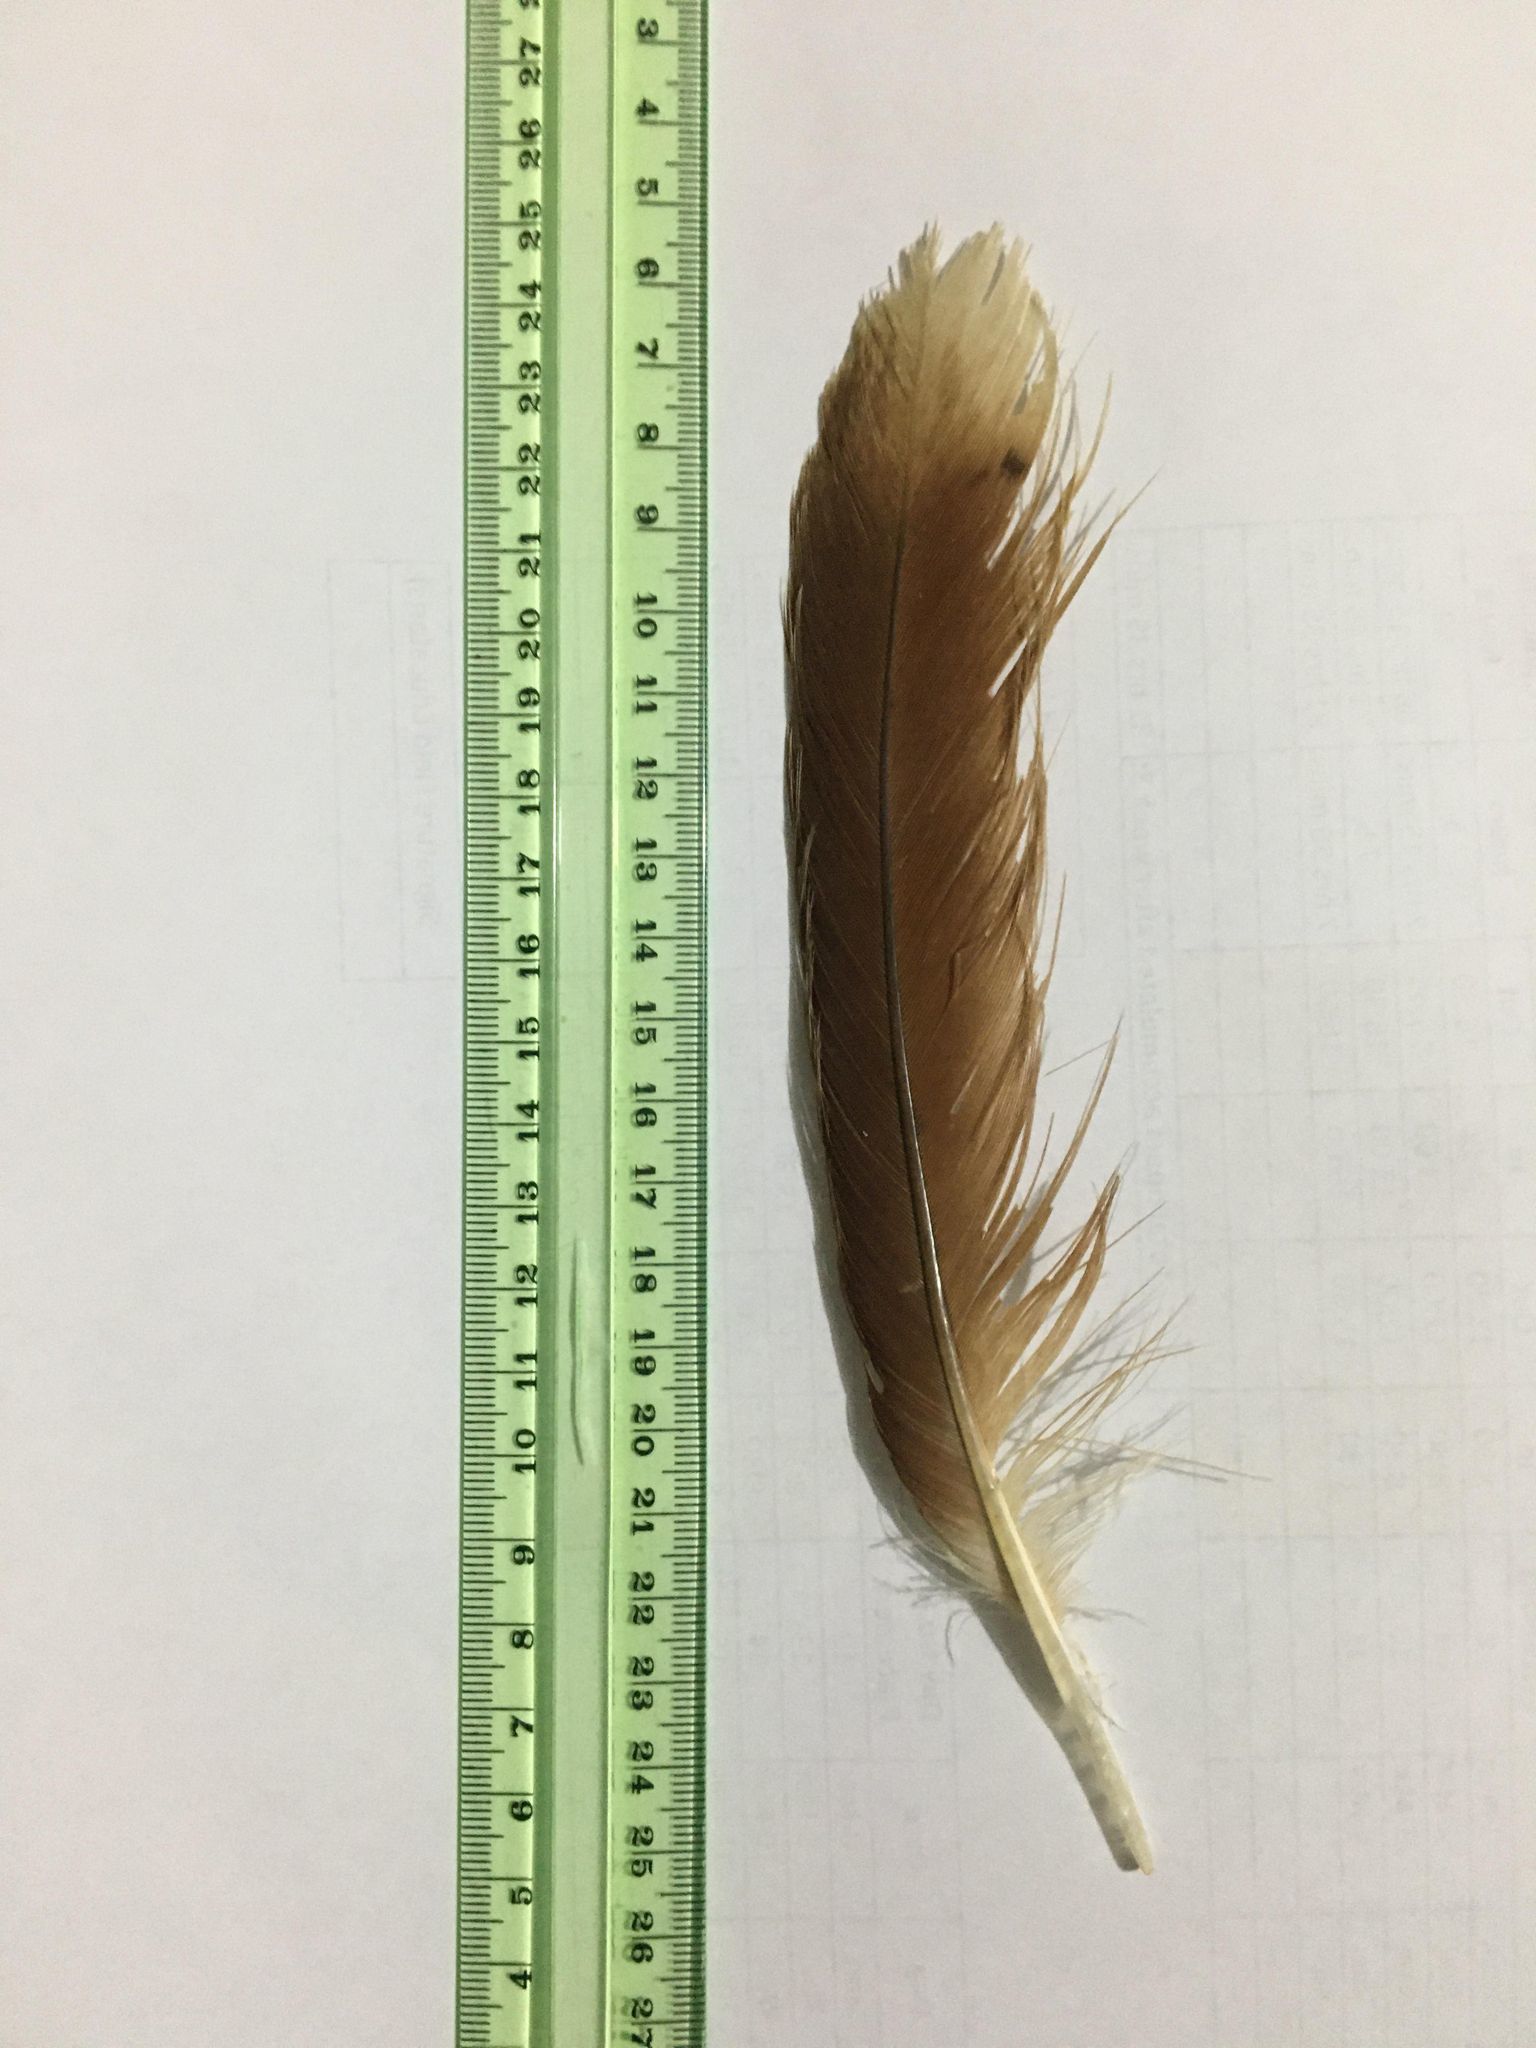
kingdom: Animalia
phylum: Chordata
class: Aves
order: Accipitriformes
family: Accipitridae
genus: Haliastur
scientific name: Haliastur indus
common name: Brahminy kite
